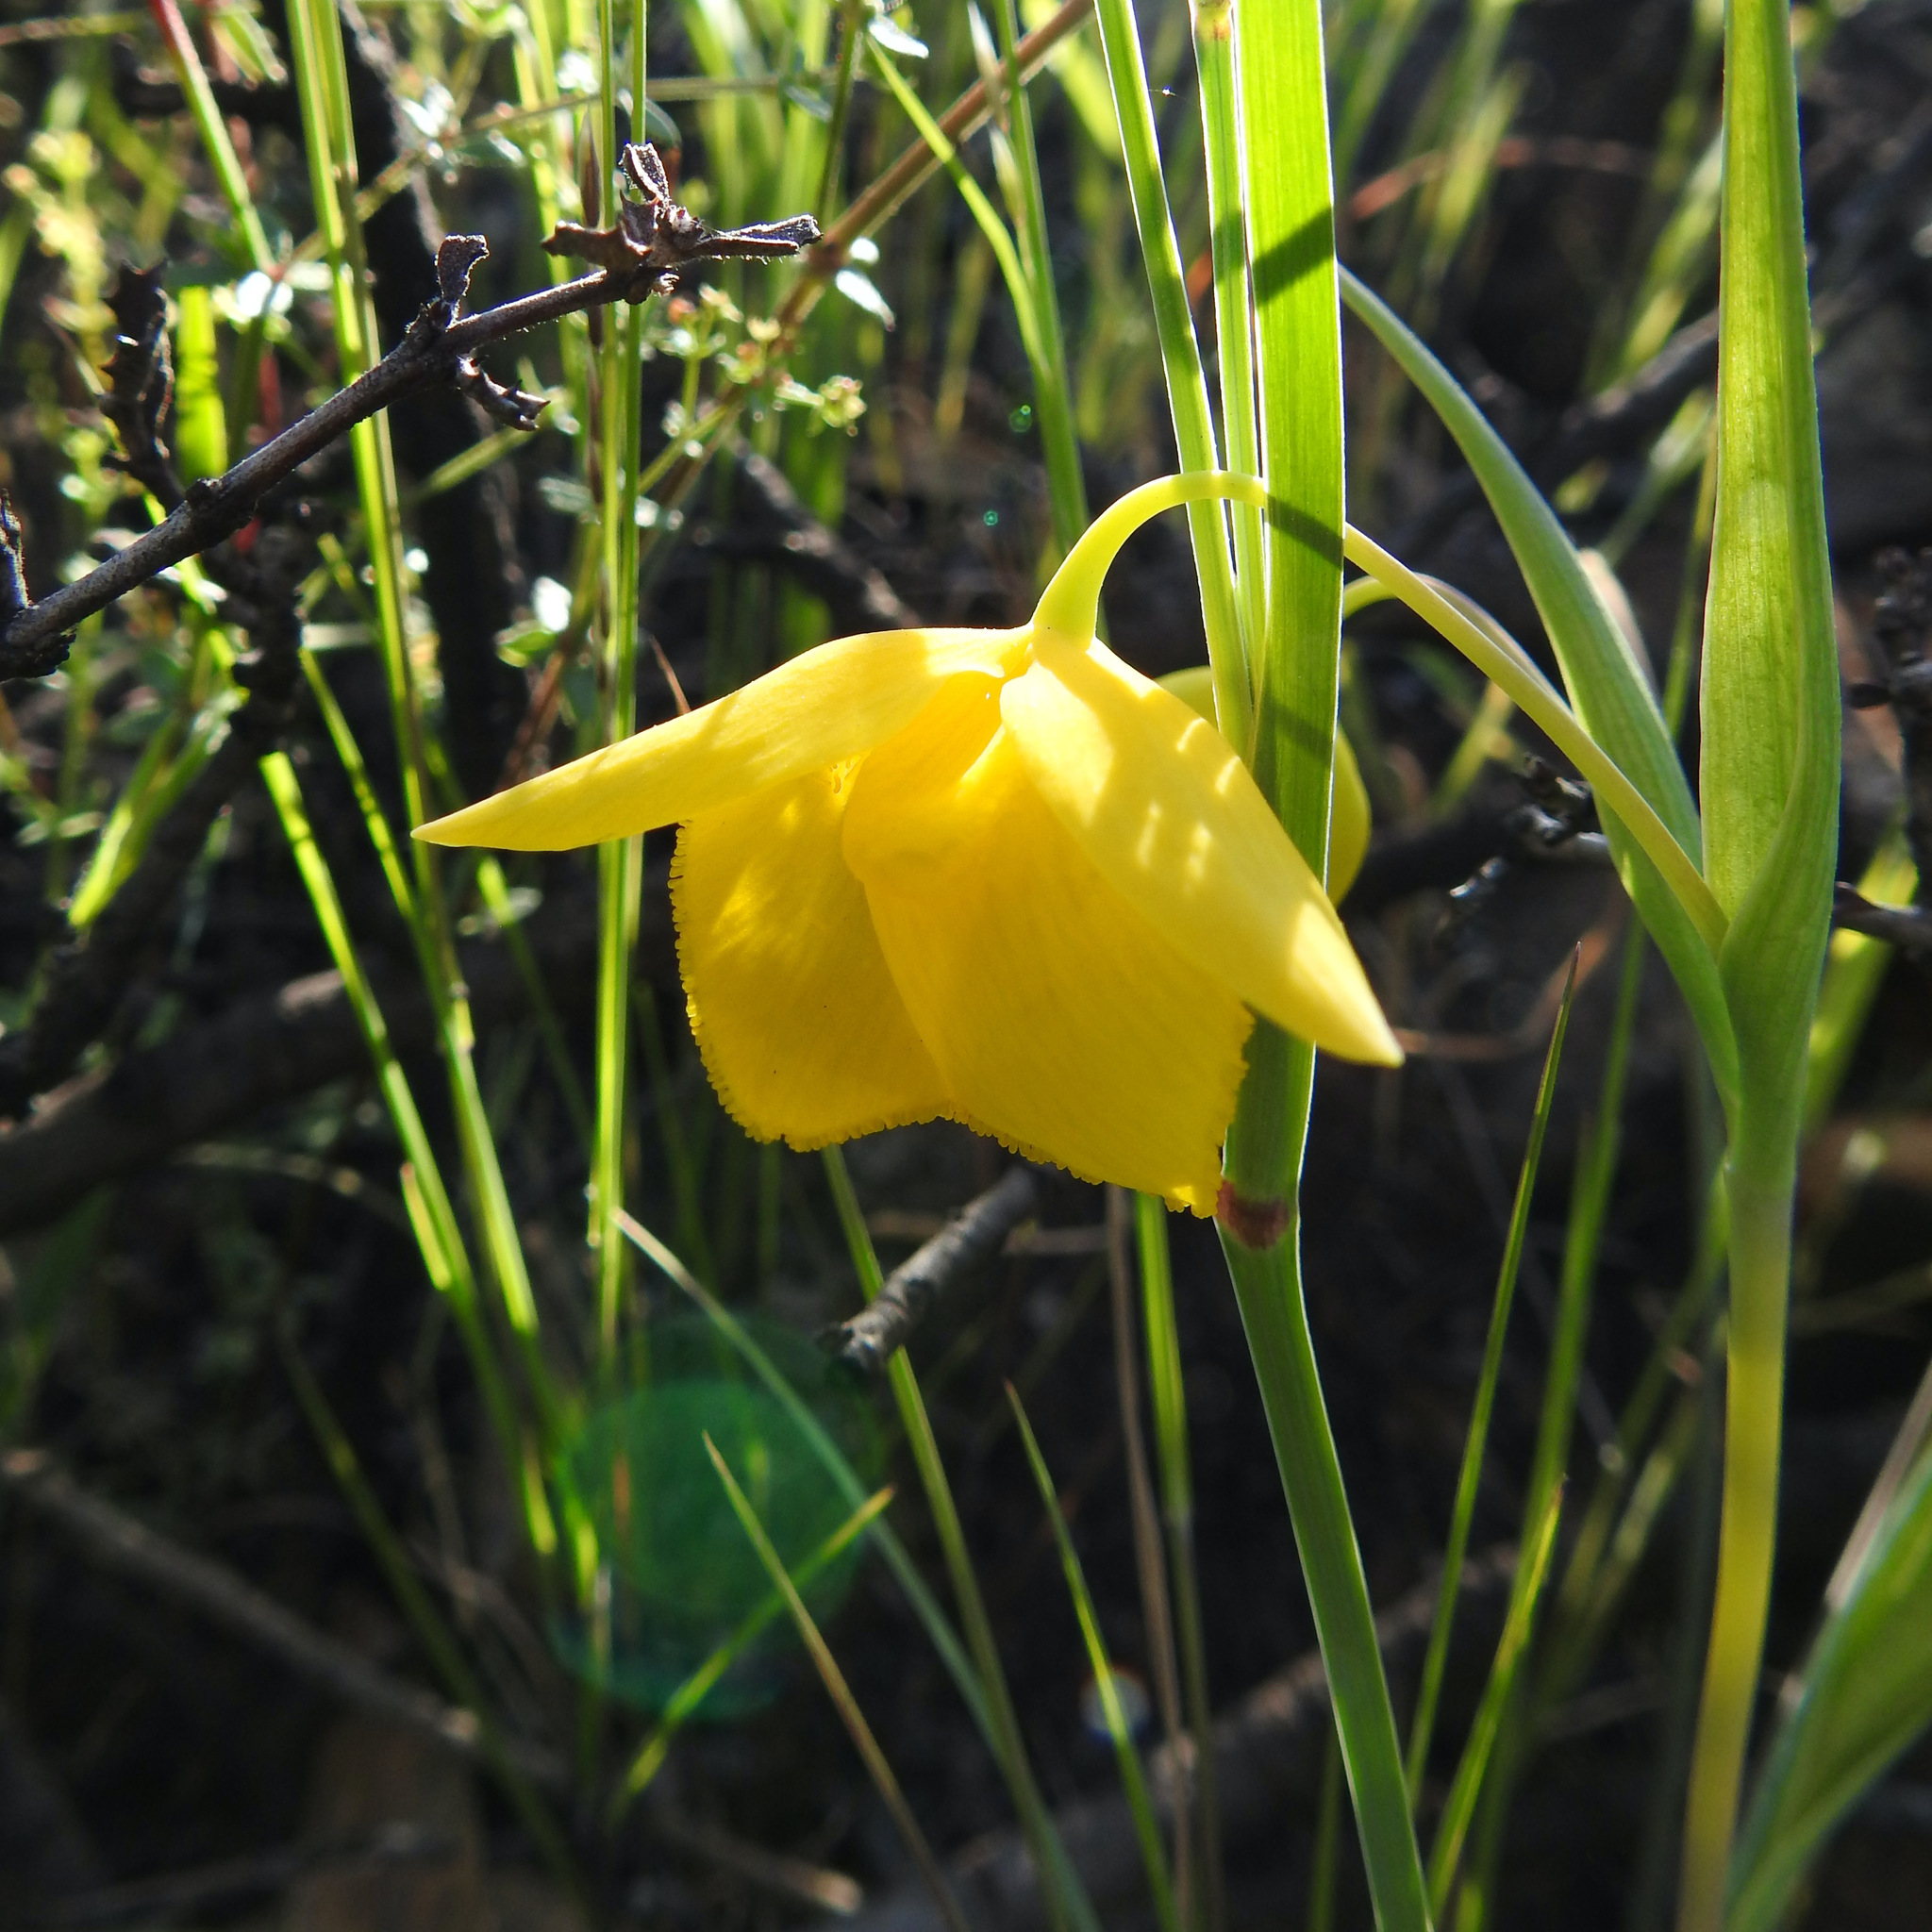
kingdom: Plantae
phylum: Tracheophyta
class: Liliopsida
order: Liliales
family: Liliaceae
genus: Calochortus
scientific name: Calochortus amabilis
